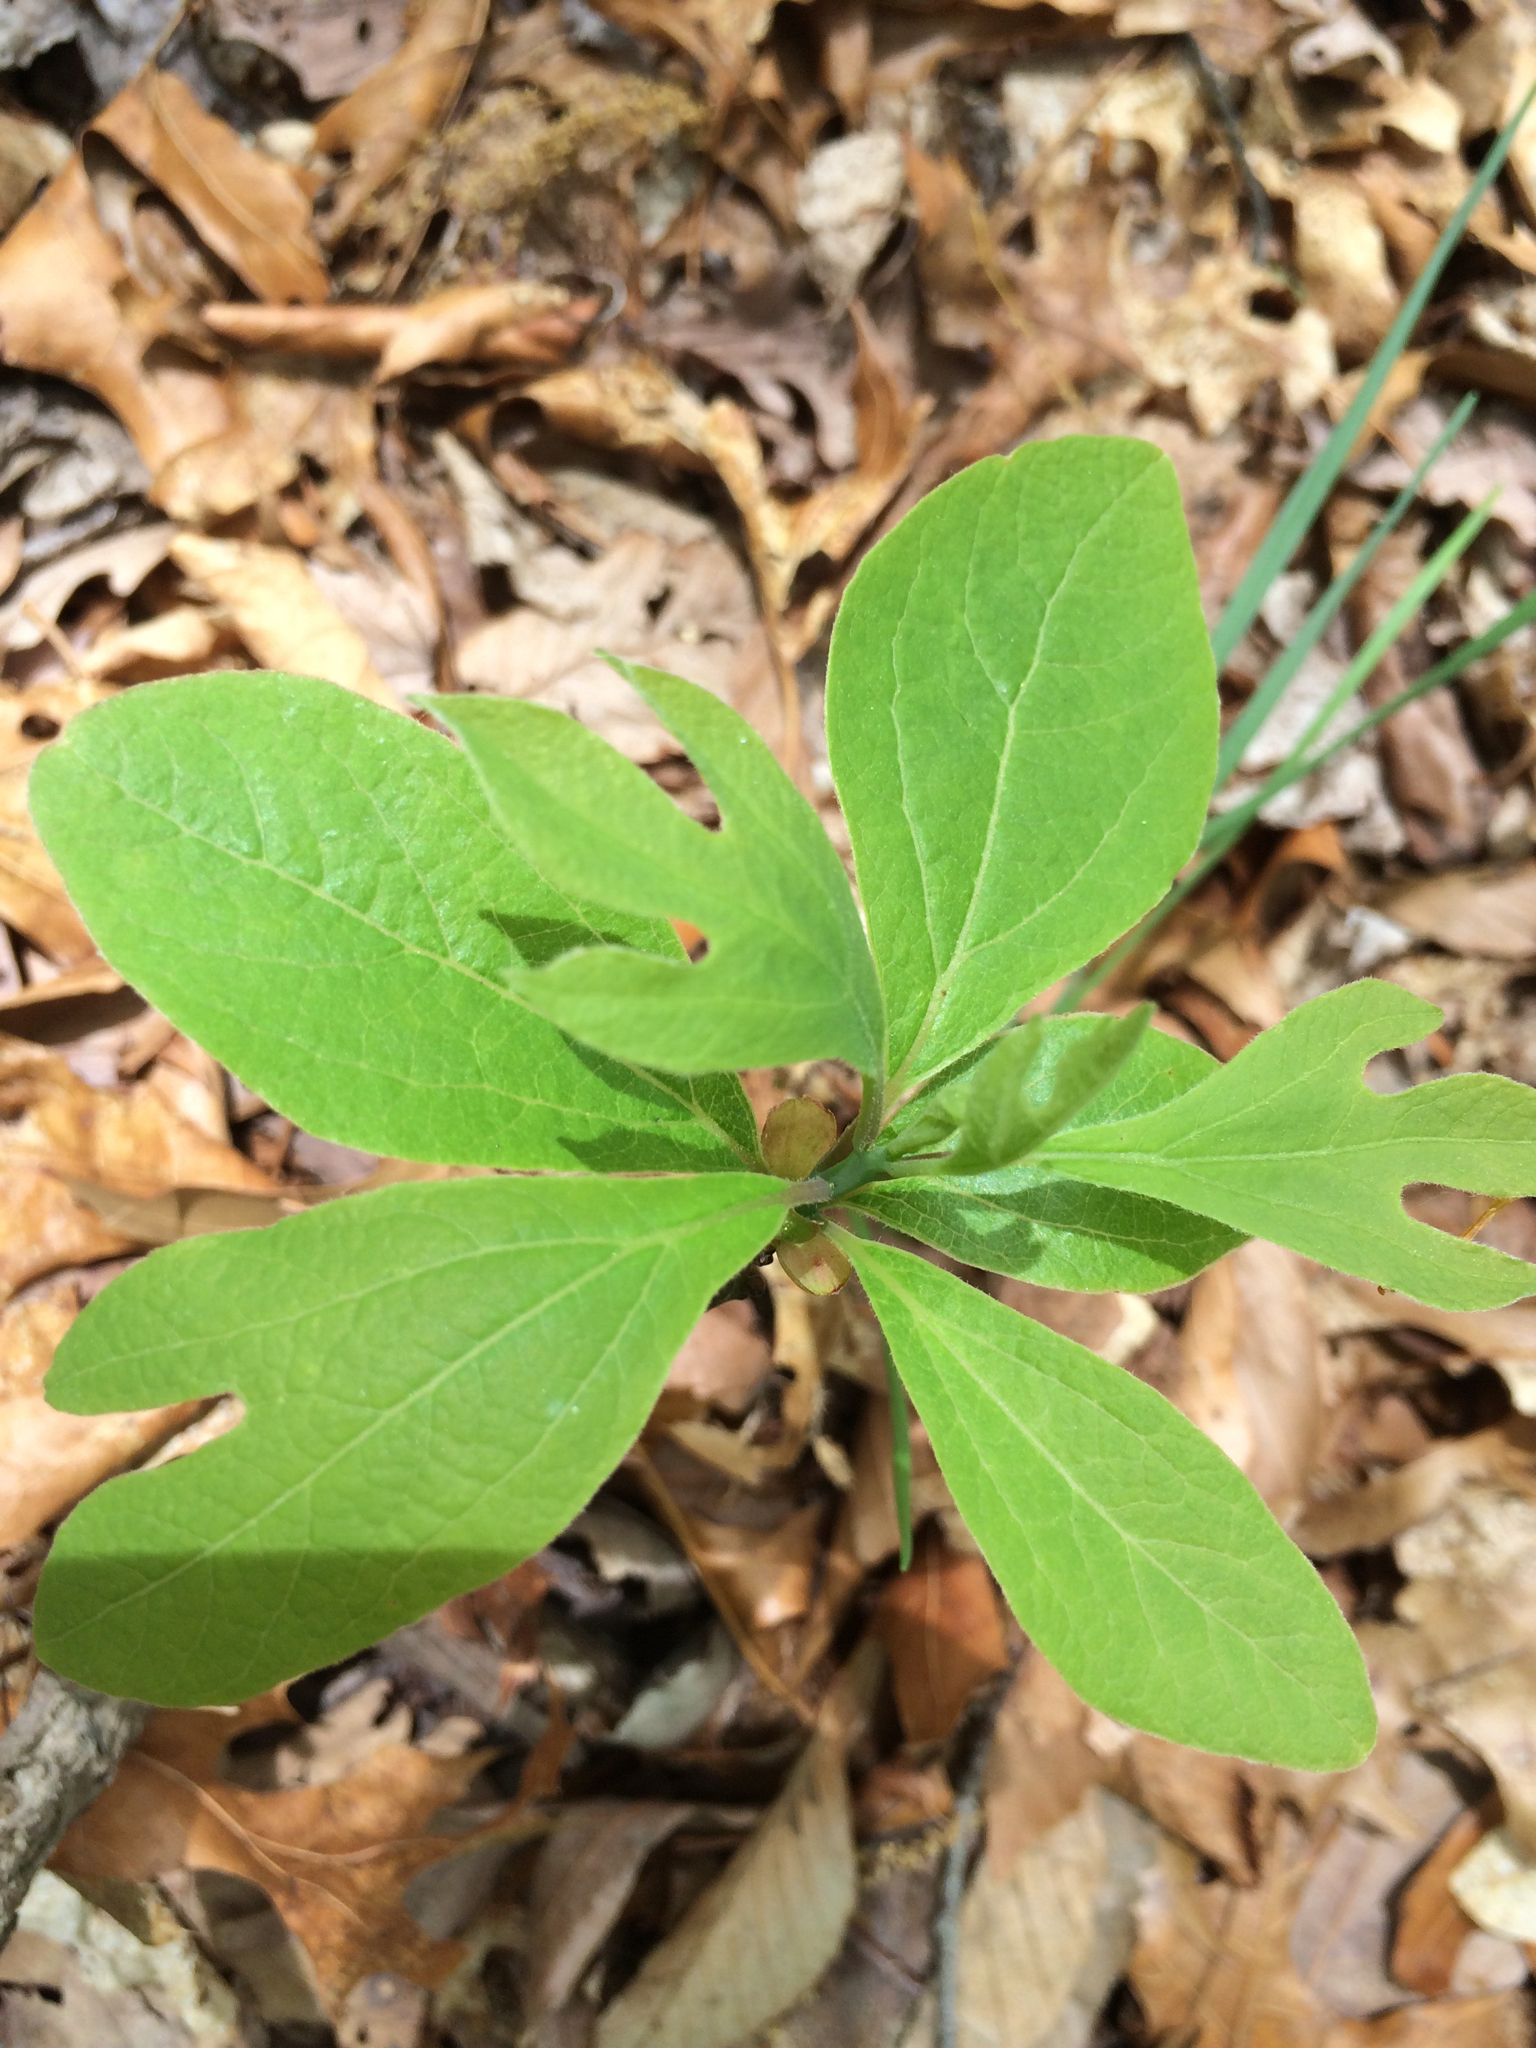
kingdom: Plantae
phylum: Tracheophyta
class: Magnoliopsida
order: Laurales
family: Lauraceae
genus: Sassafras
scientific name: Sassafras albidum
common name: Sassafras
